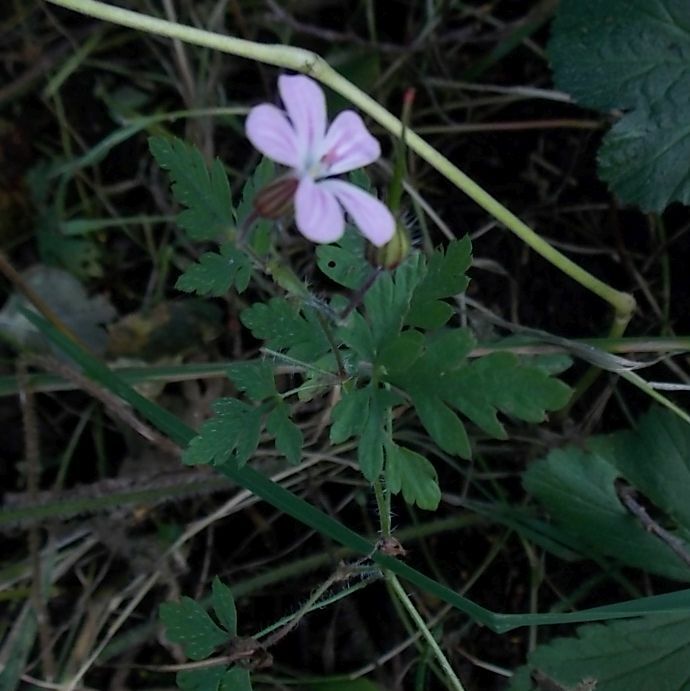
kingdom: Plantae
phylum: Tracheophyta
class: Magnoliopsida
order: Geraniales
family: Geraniaceae
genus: Geranium
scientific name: Geranium robertianum
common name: Herb-robert
